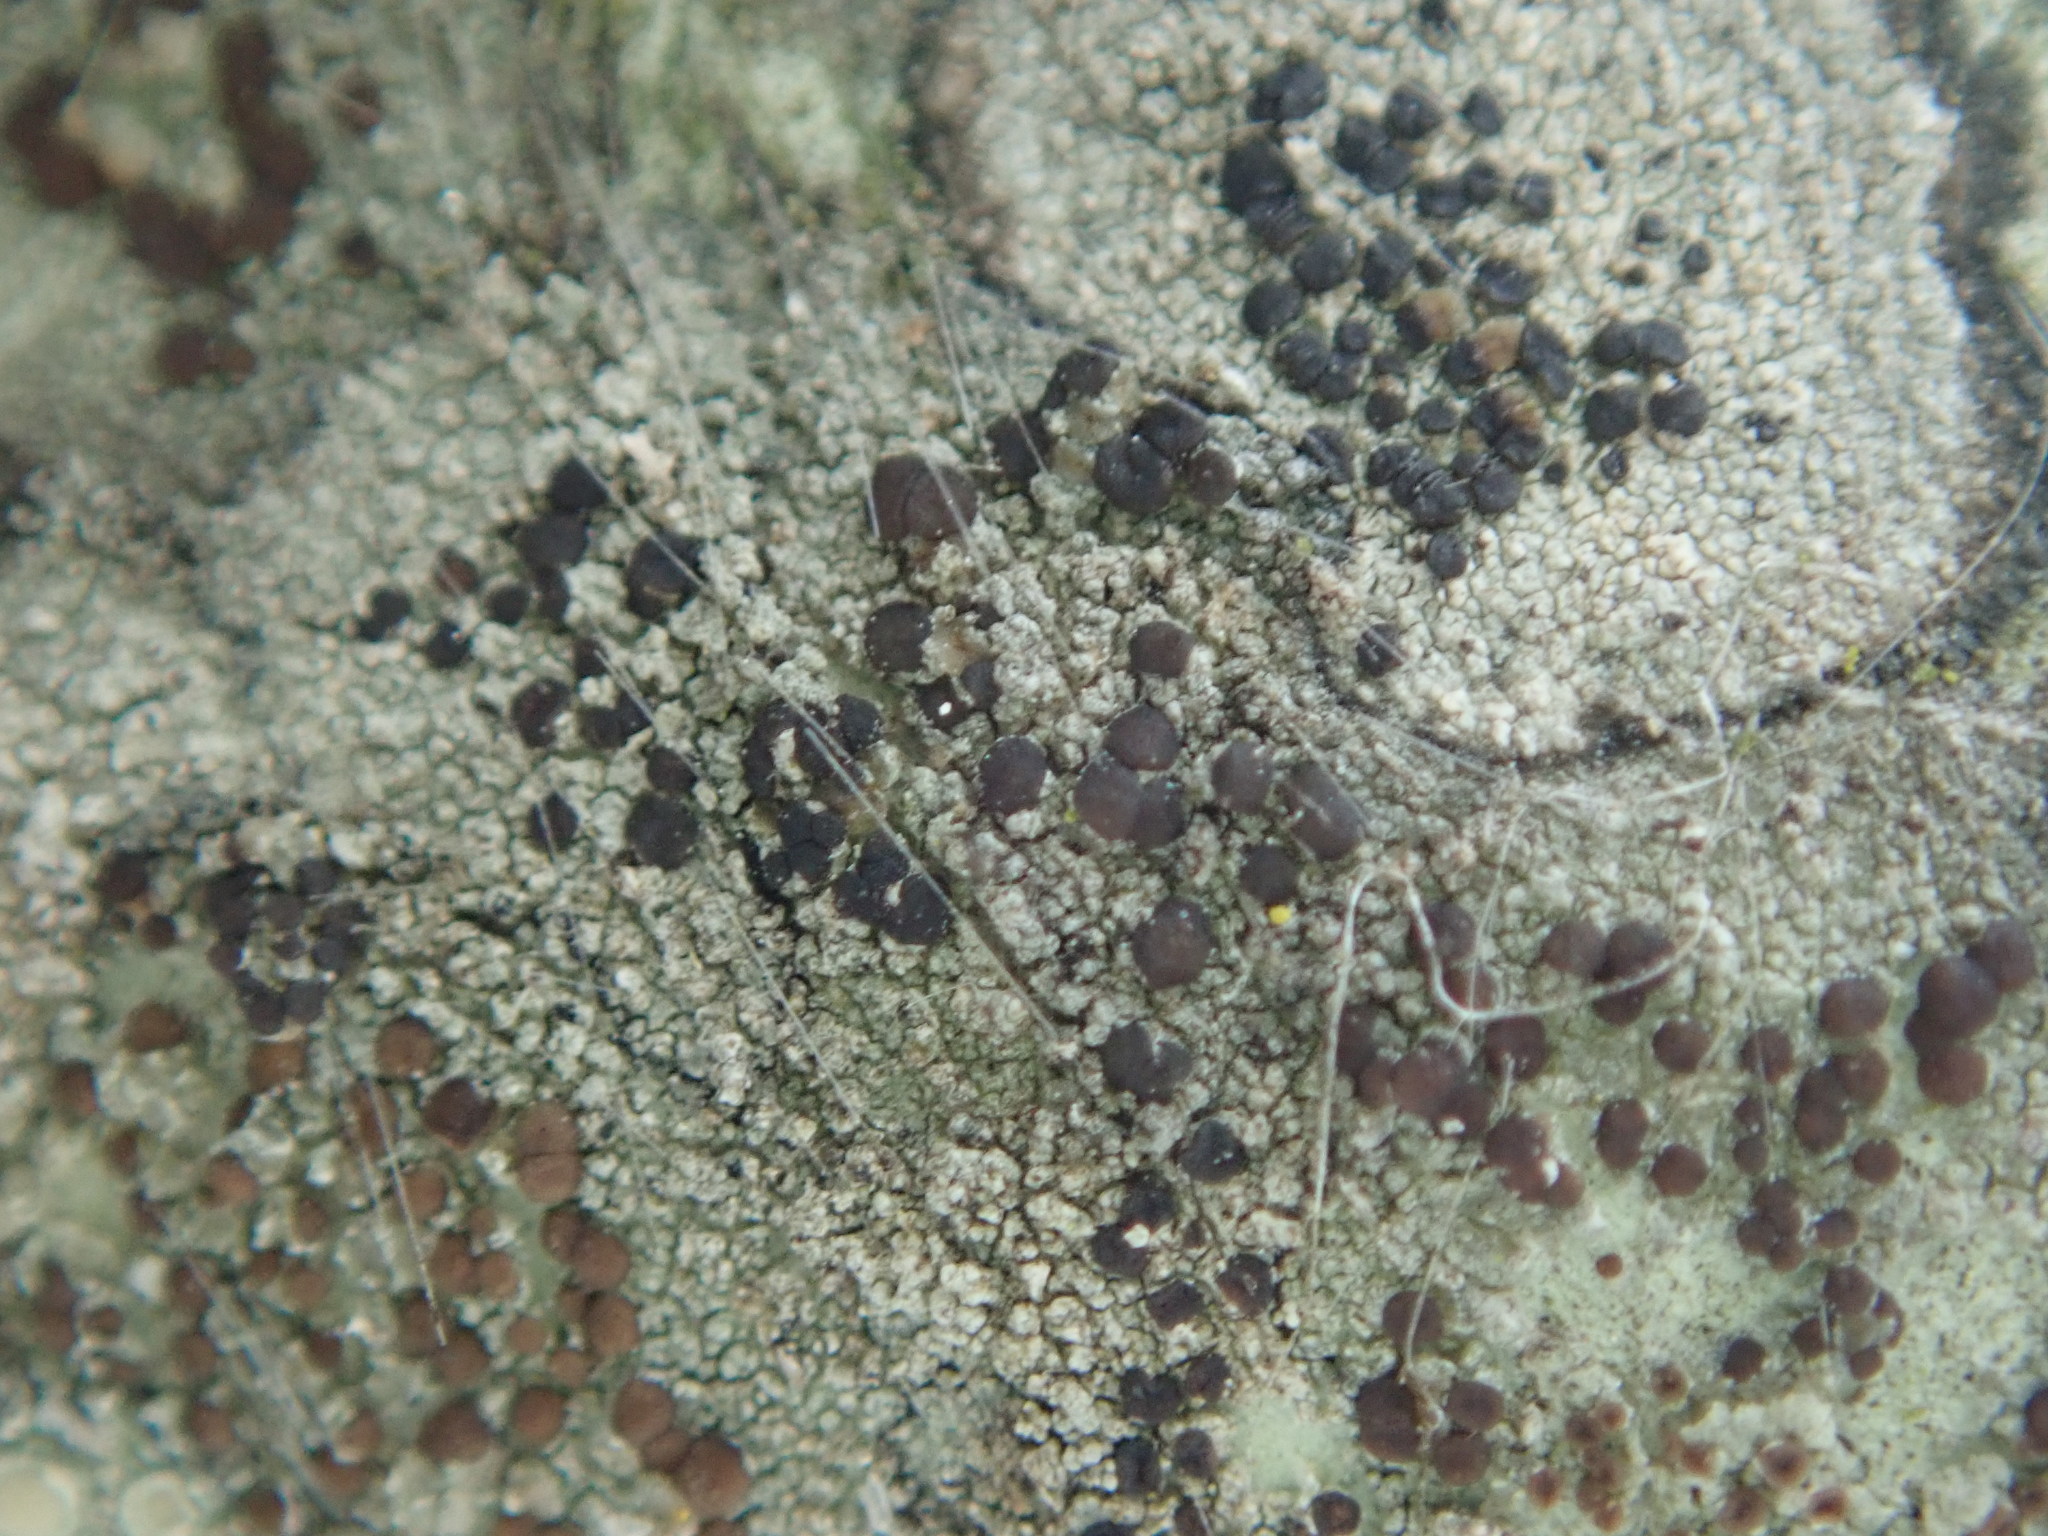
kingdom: Fungi
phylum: Ascomycota
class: Lecanoromycetes
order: Lecanorales
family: Lecanoraceae
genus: Traponora
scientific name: Traponora varians
